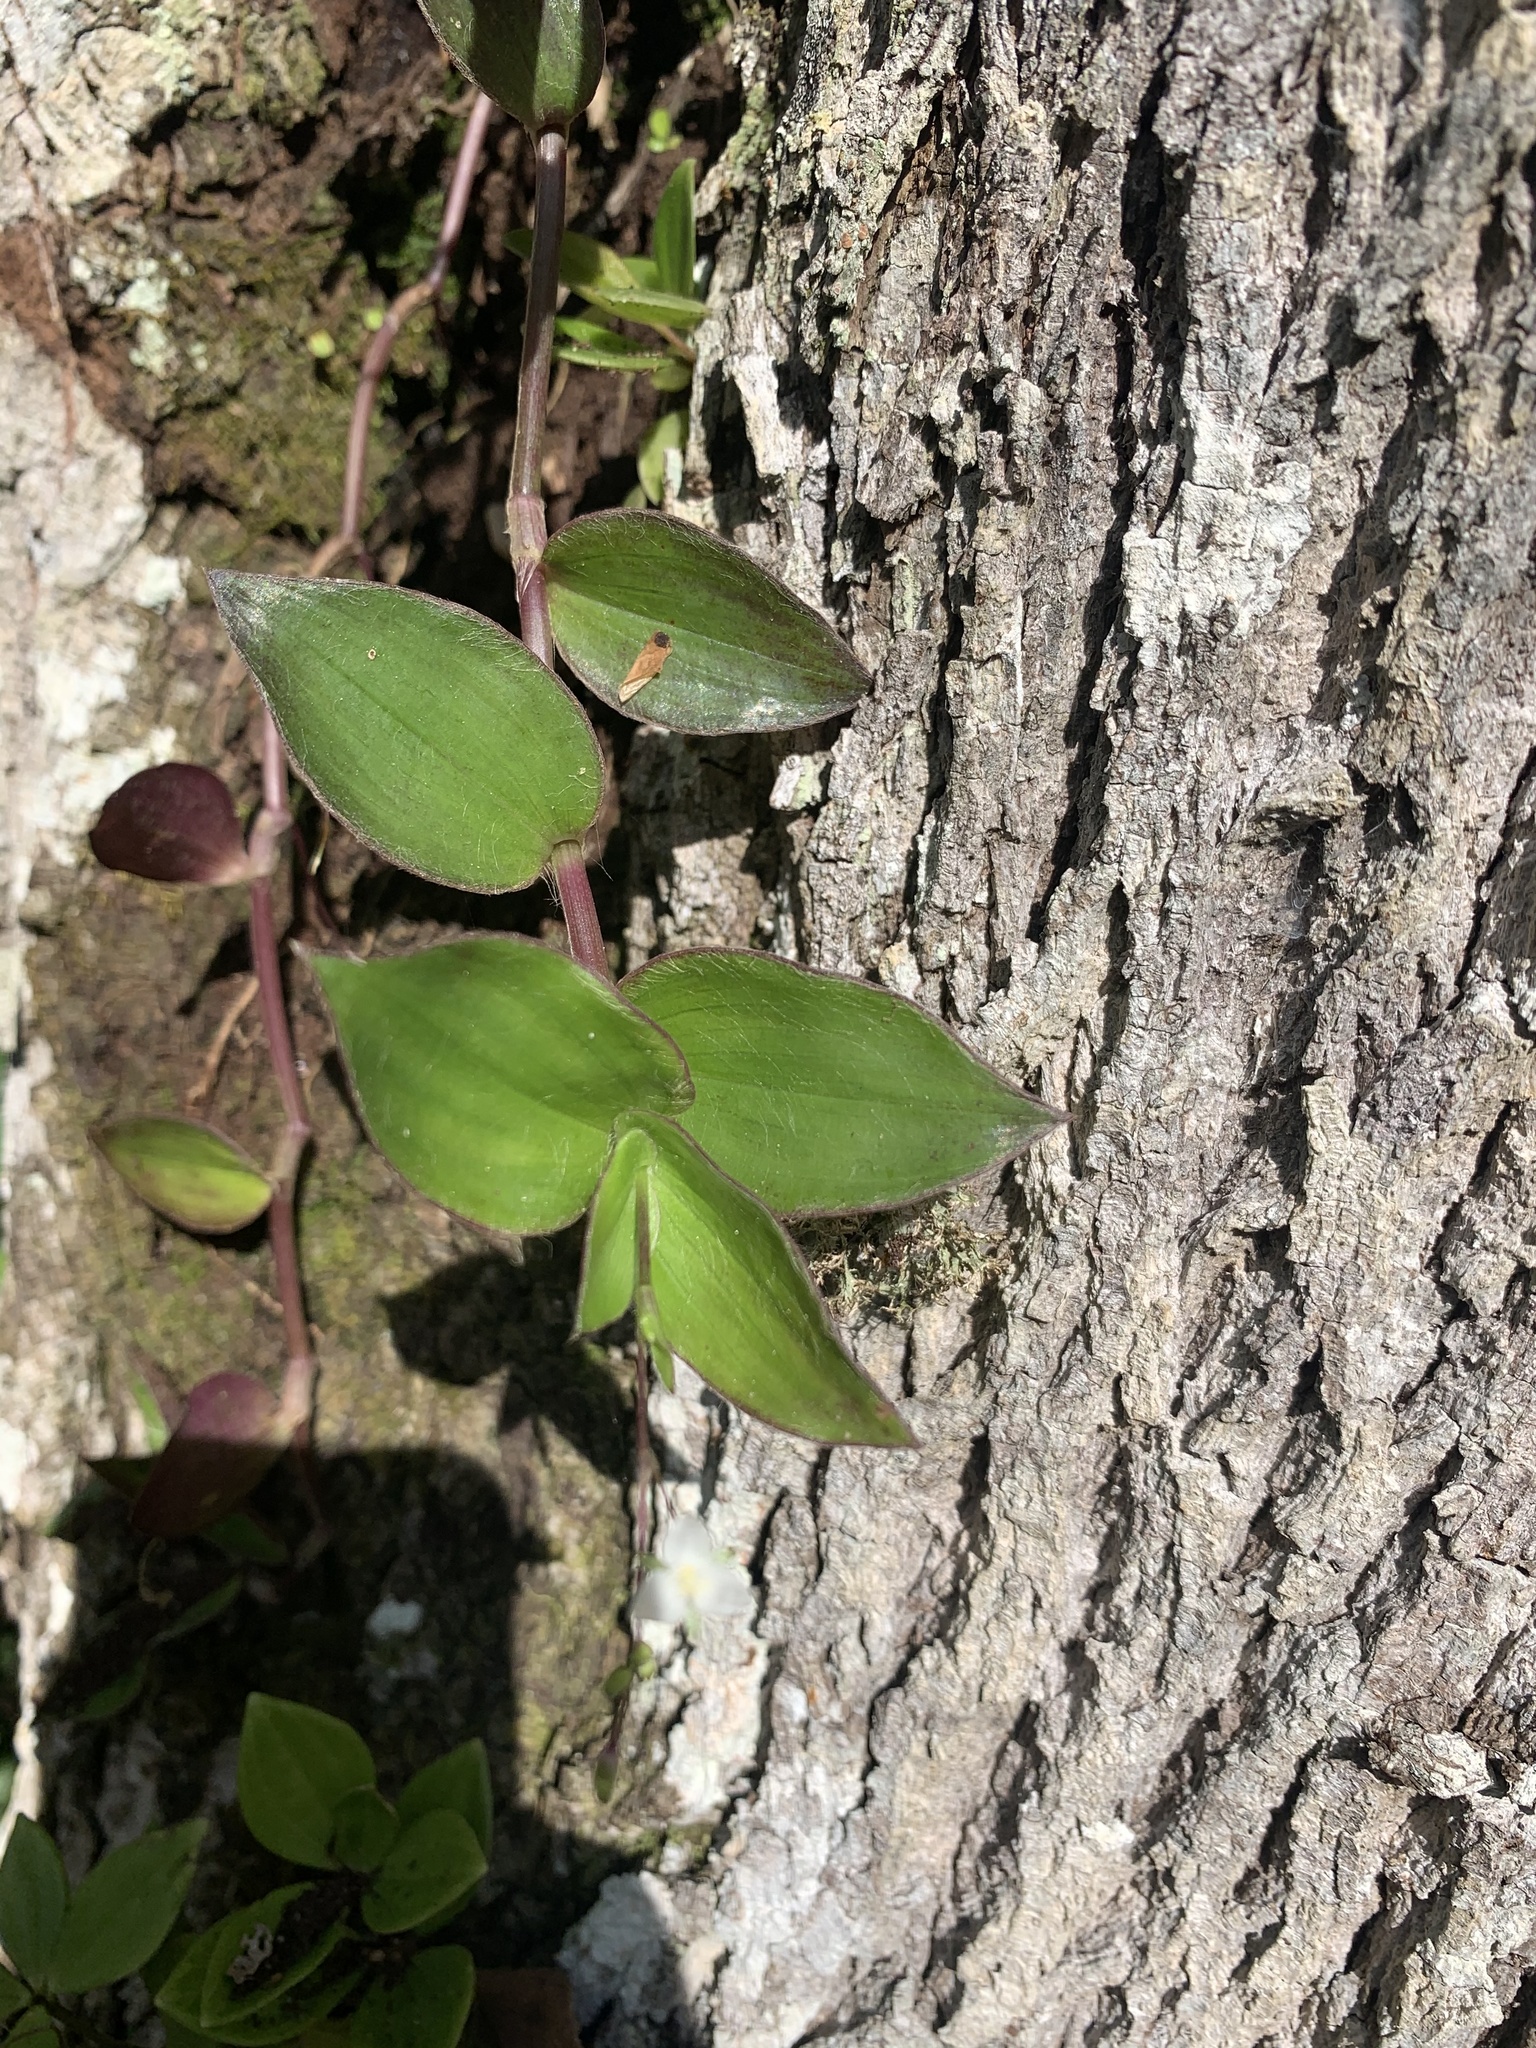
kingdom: Plantae
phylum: Tracheophyta
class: Liliopsida
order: Commelinales
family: Commelinaceae
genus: Callisia
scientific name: Callisia repens
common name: Creeping inchplant
